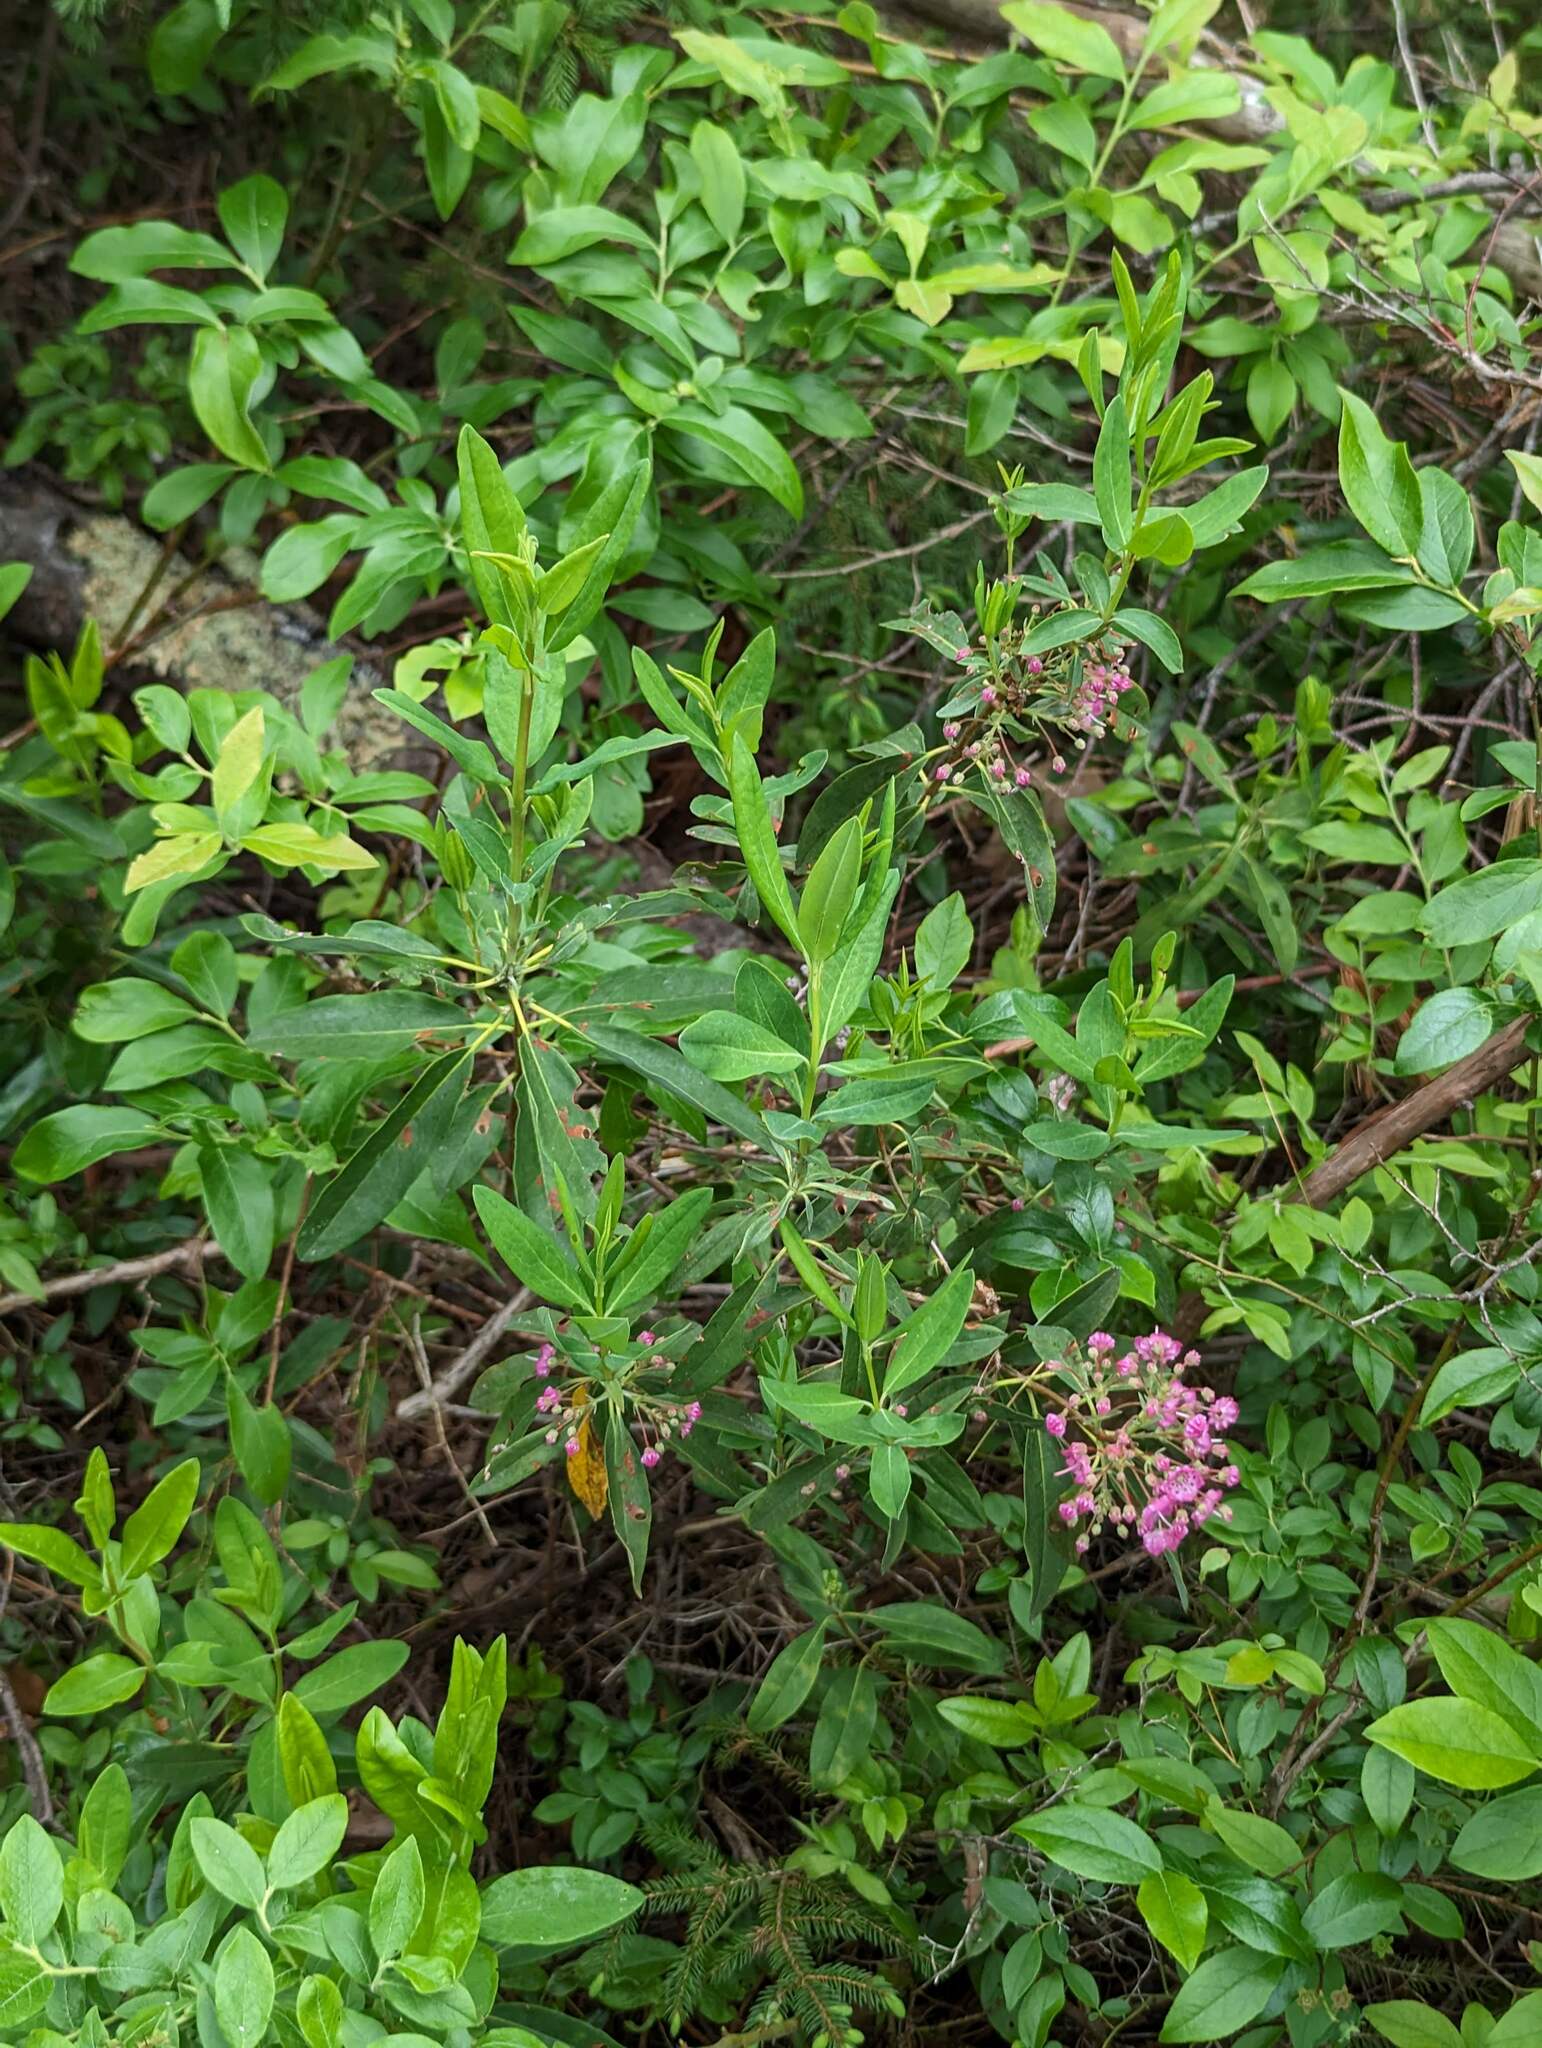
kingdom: Plantae
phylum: Tracheophyta
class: Magnoliopsida
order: Ericales
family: Ericaceae
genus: Kalmia
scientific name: Kalmia angustifolia
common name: Sheep-laurel
